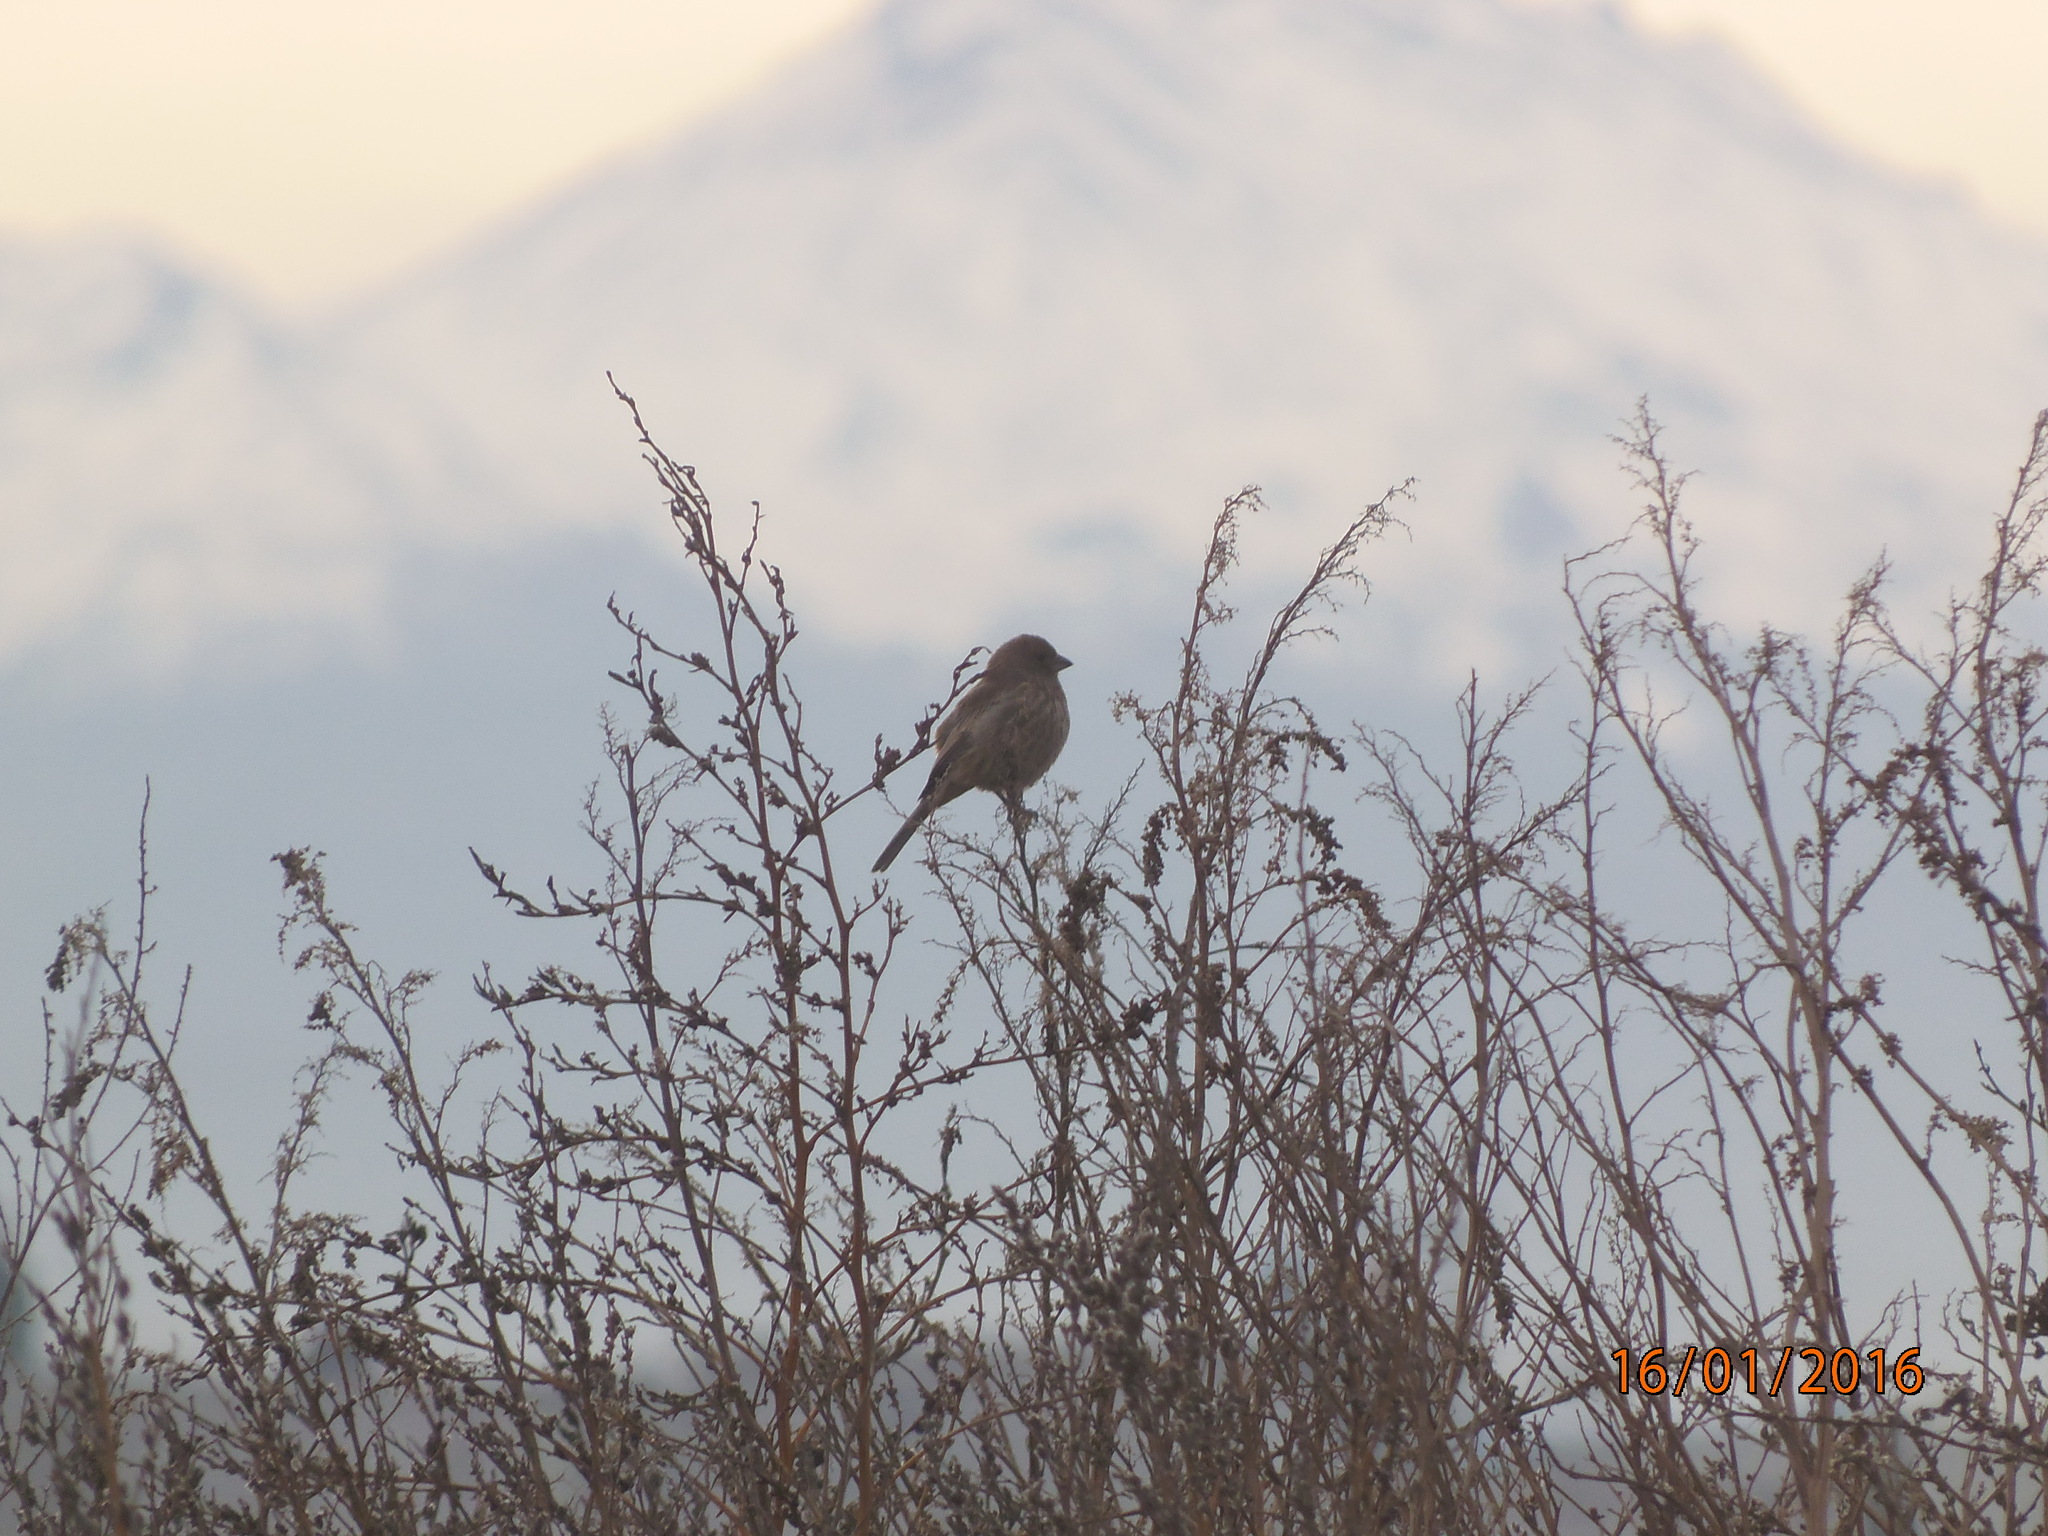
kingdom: Animalia
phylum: Chordata
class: Aves
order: Passeriformes
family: Fringillidae
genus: Haemorhous
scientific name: Haemorhous mexicanus
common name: House finch
